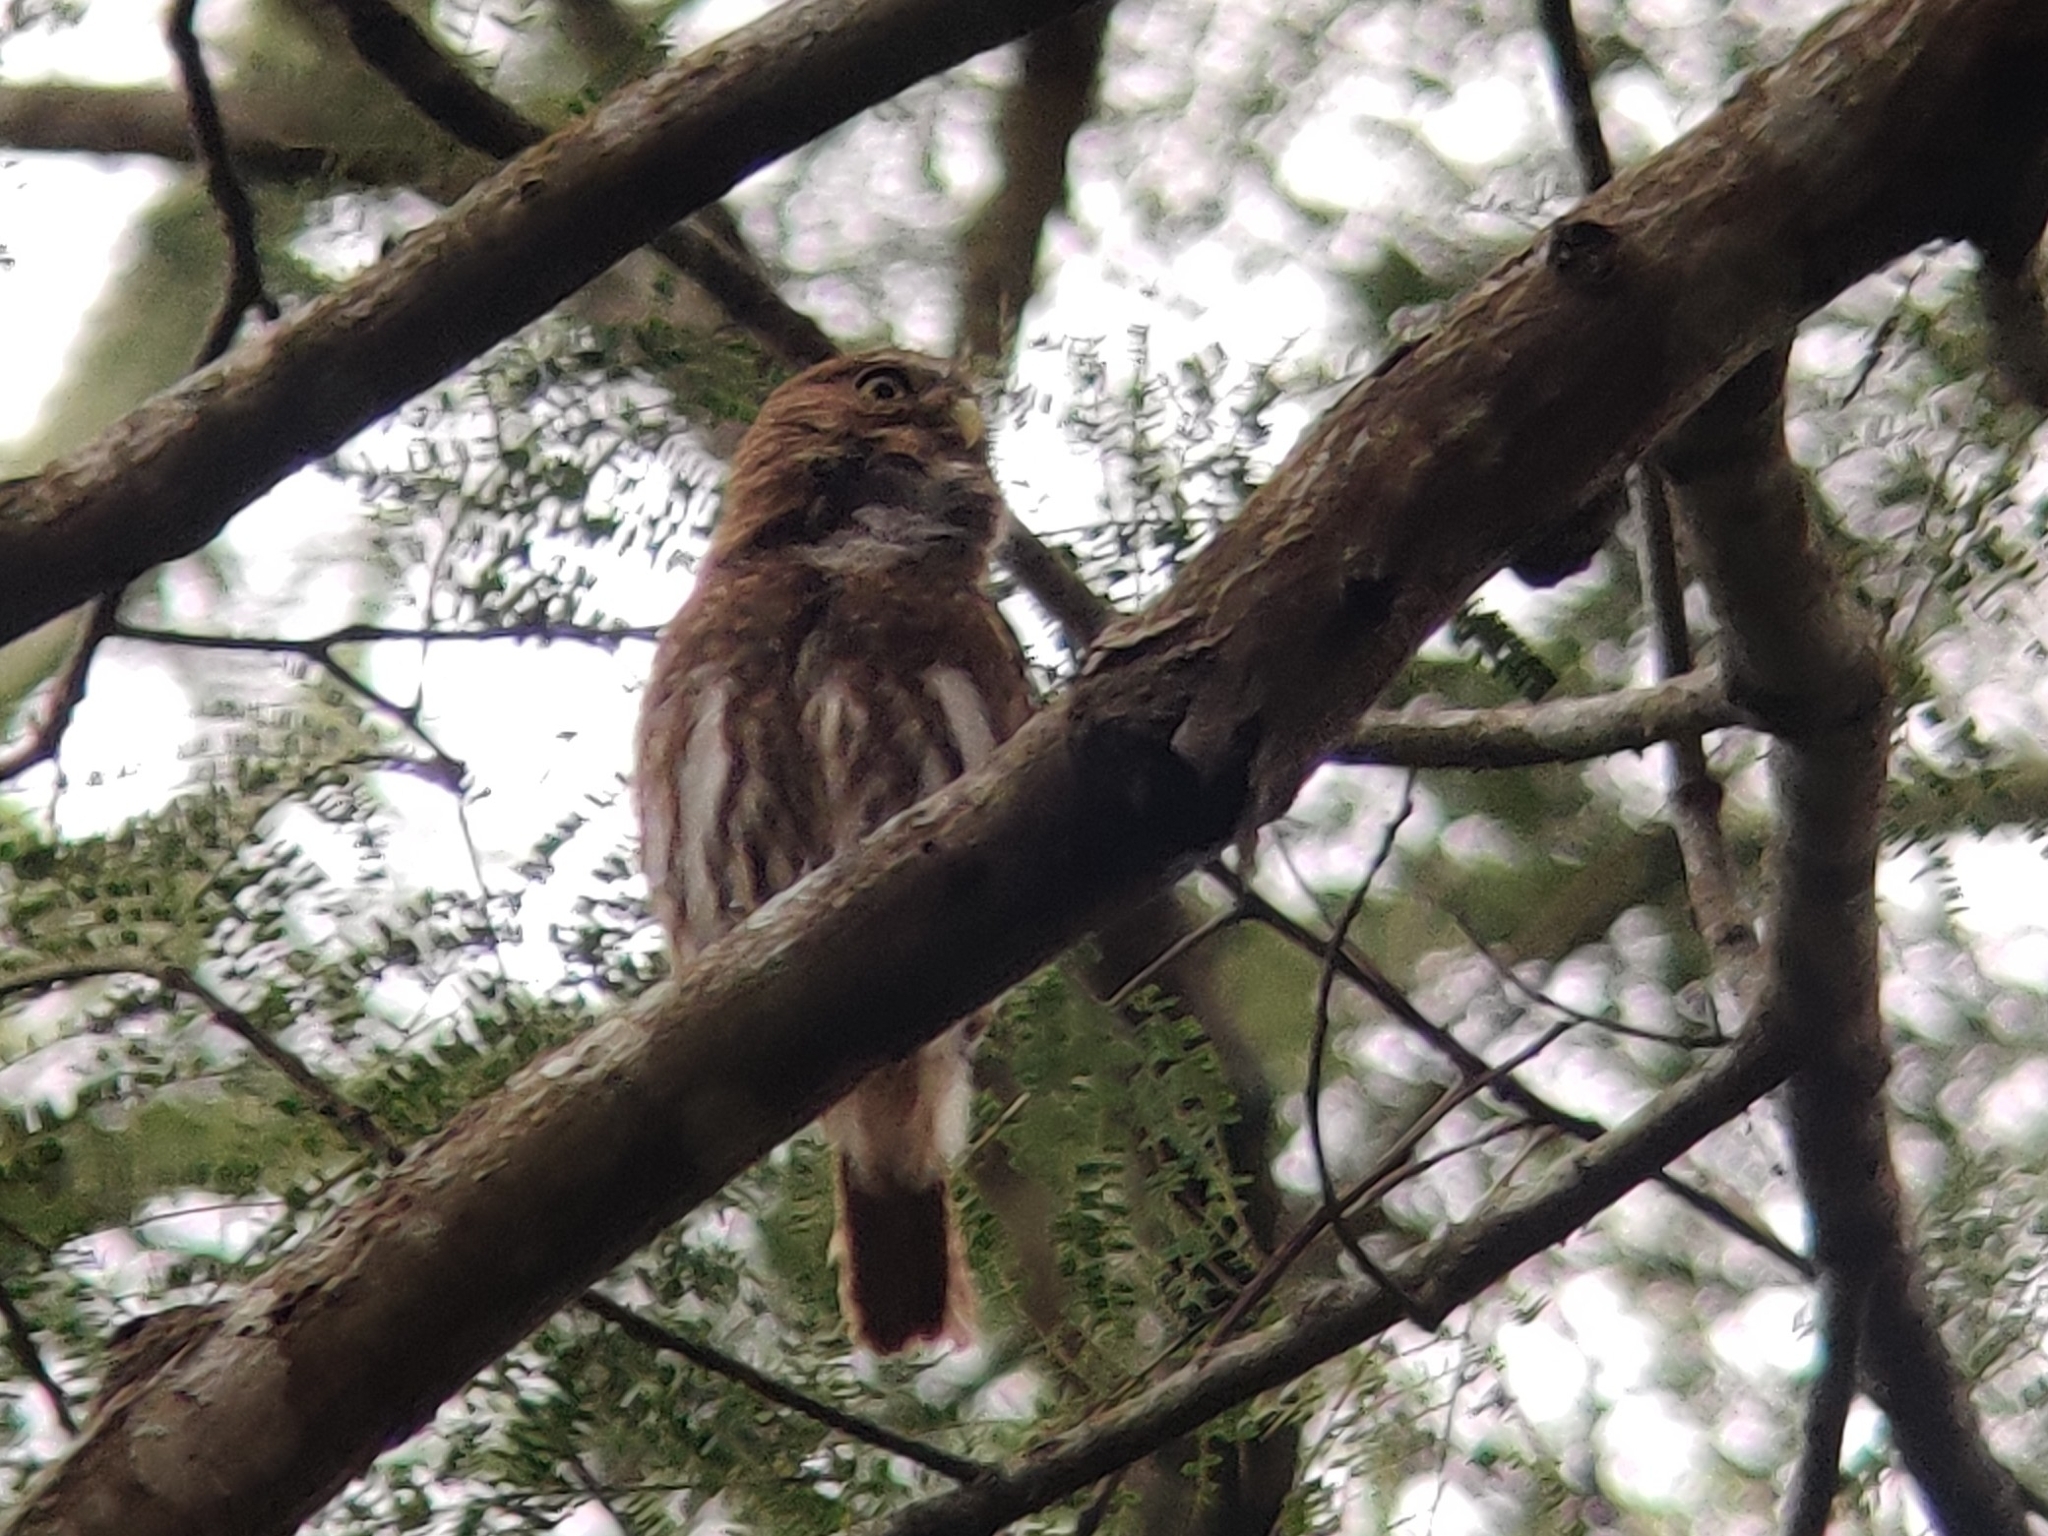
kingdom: Animalia
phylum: Chordata
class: Aves
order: Strigiformes
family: Strigidae
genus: Glaucidium
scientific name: Glaucidium brasilianum
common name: Ferruginous pygmy-owl
